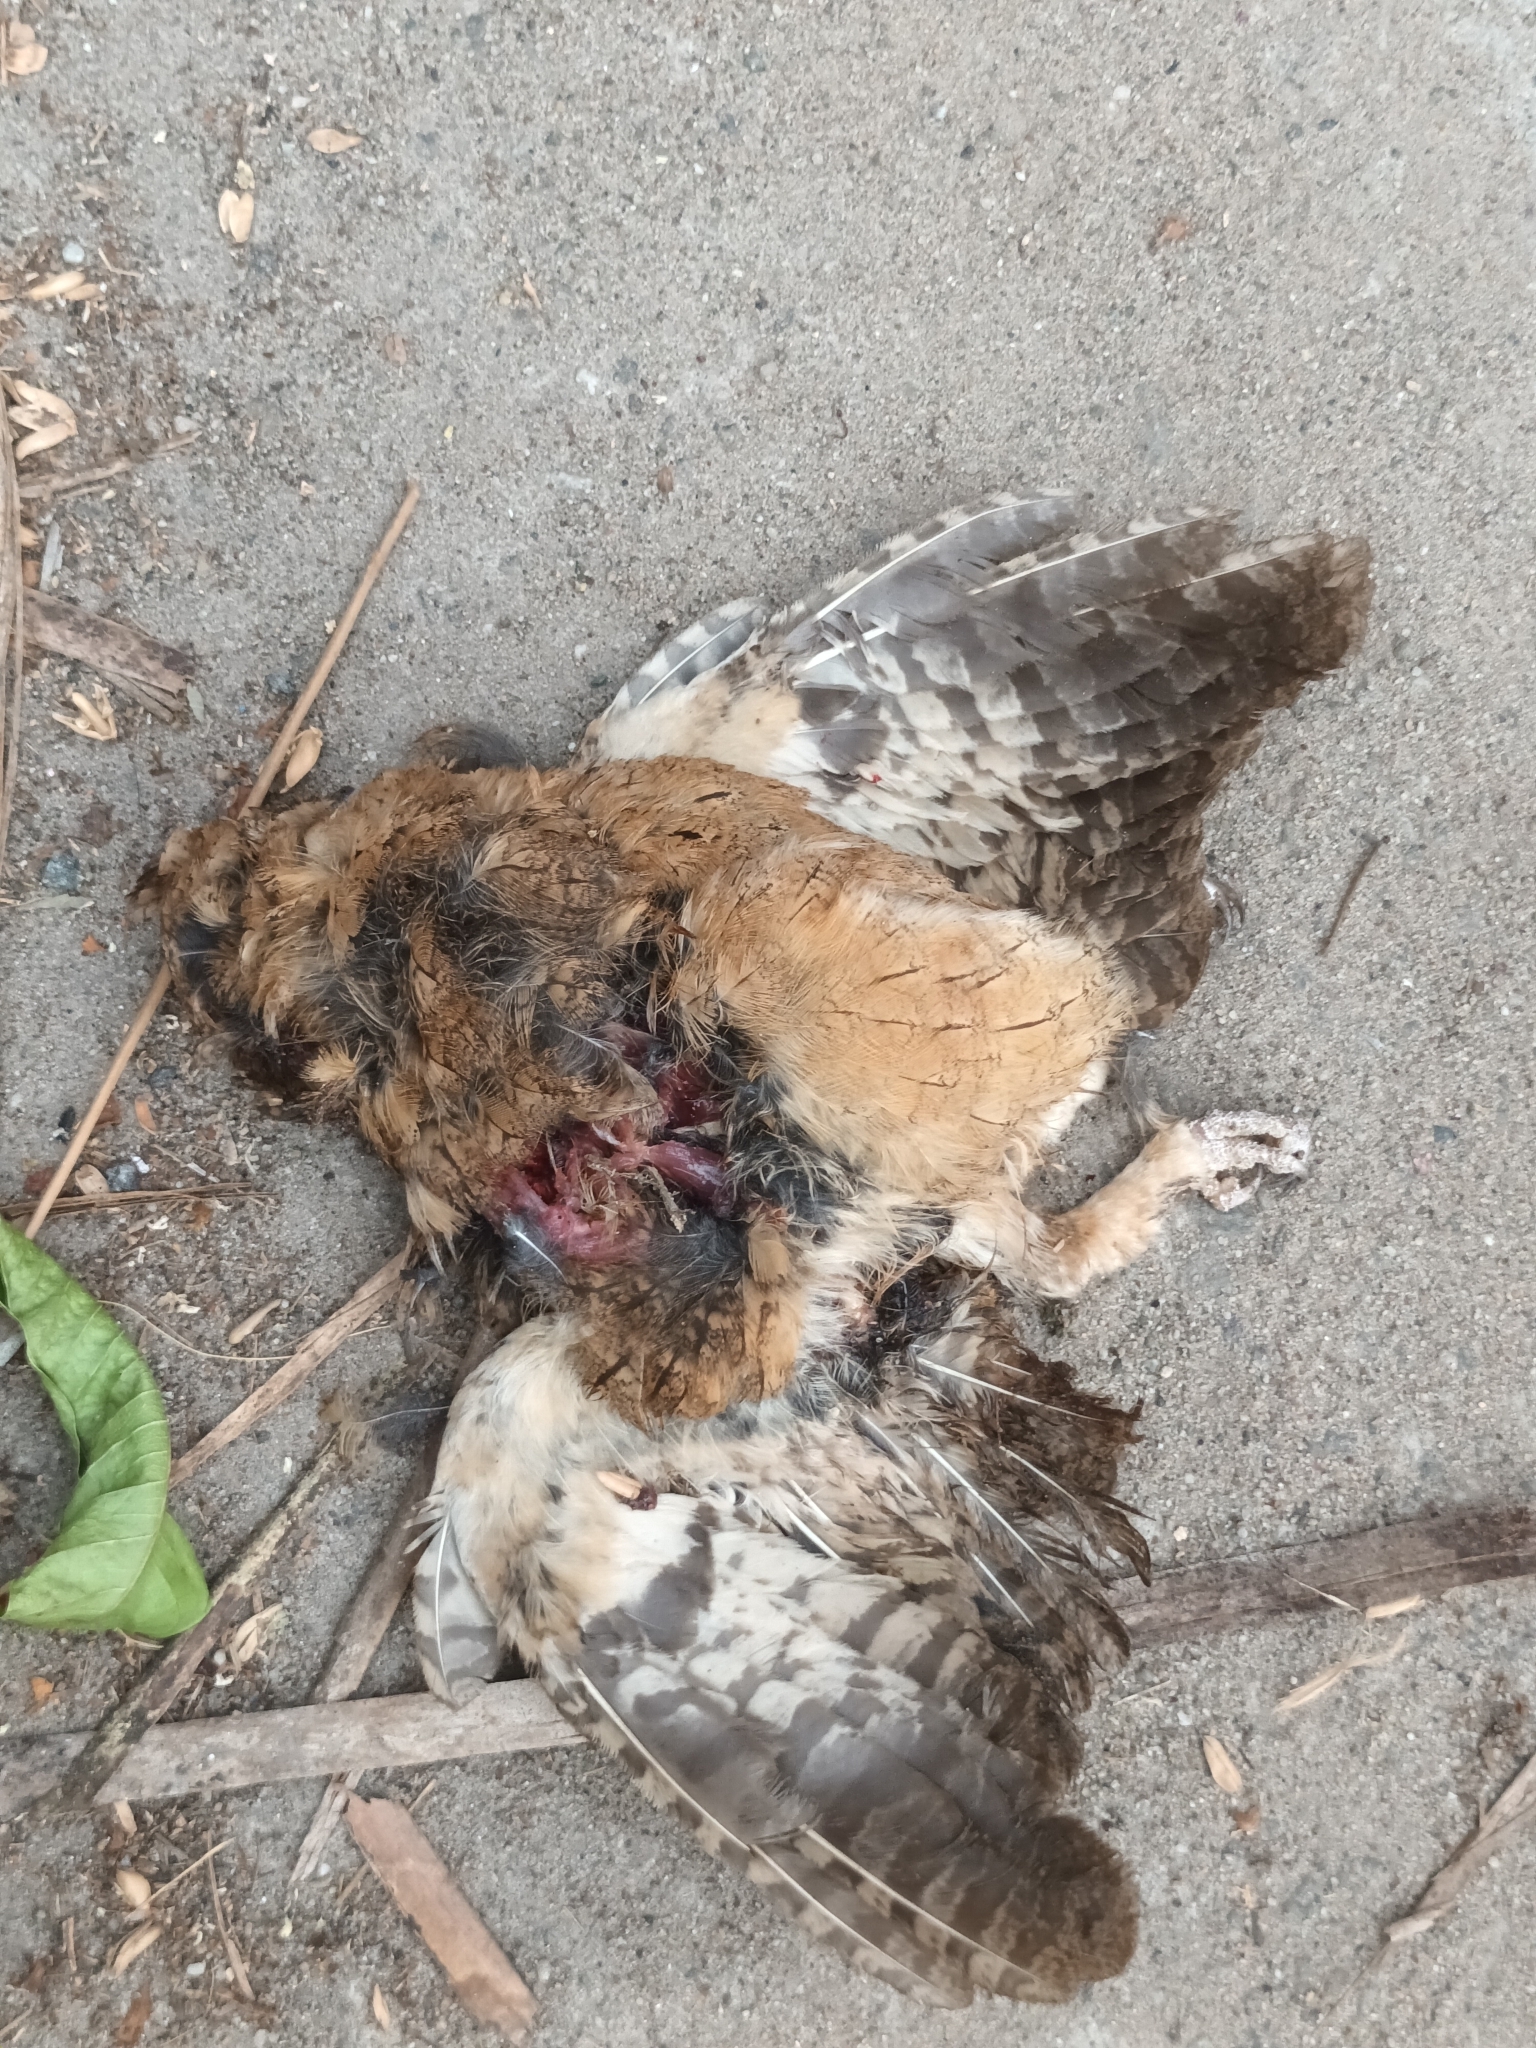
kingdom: Animalia
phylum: Chordata
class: Aves
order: Strigiformes
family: Strigidae
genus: Otus
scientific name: Otus bakkamoena
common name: Indian scops owl
